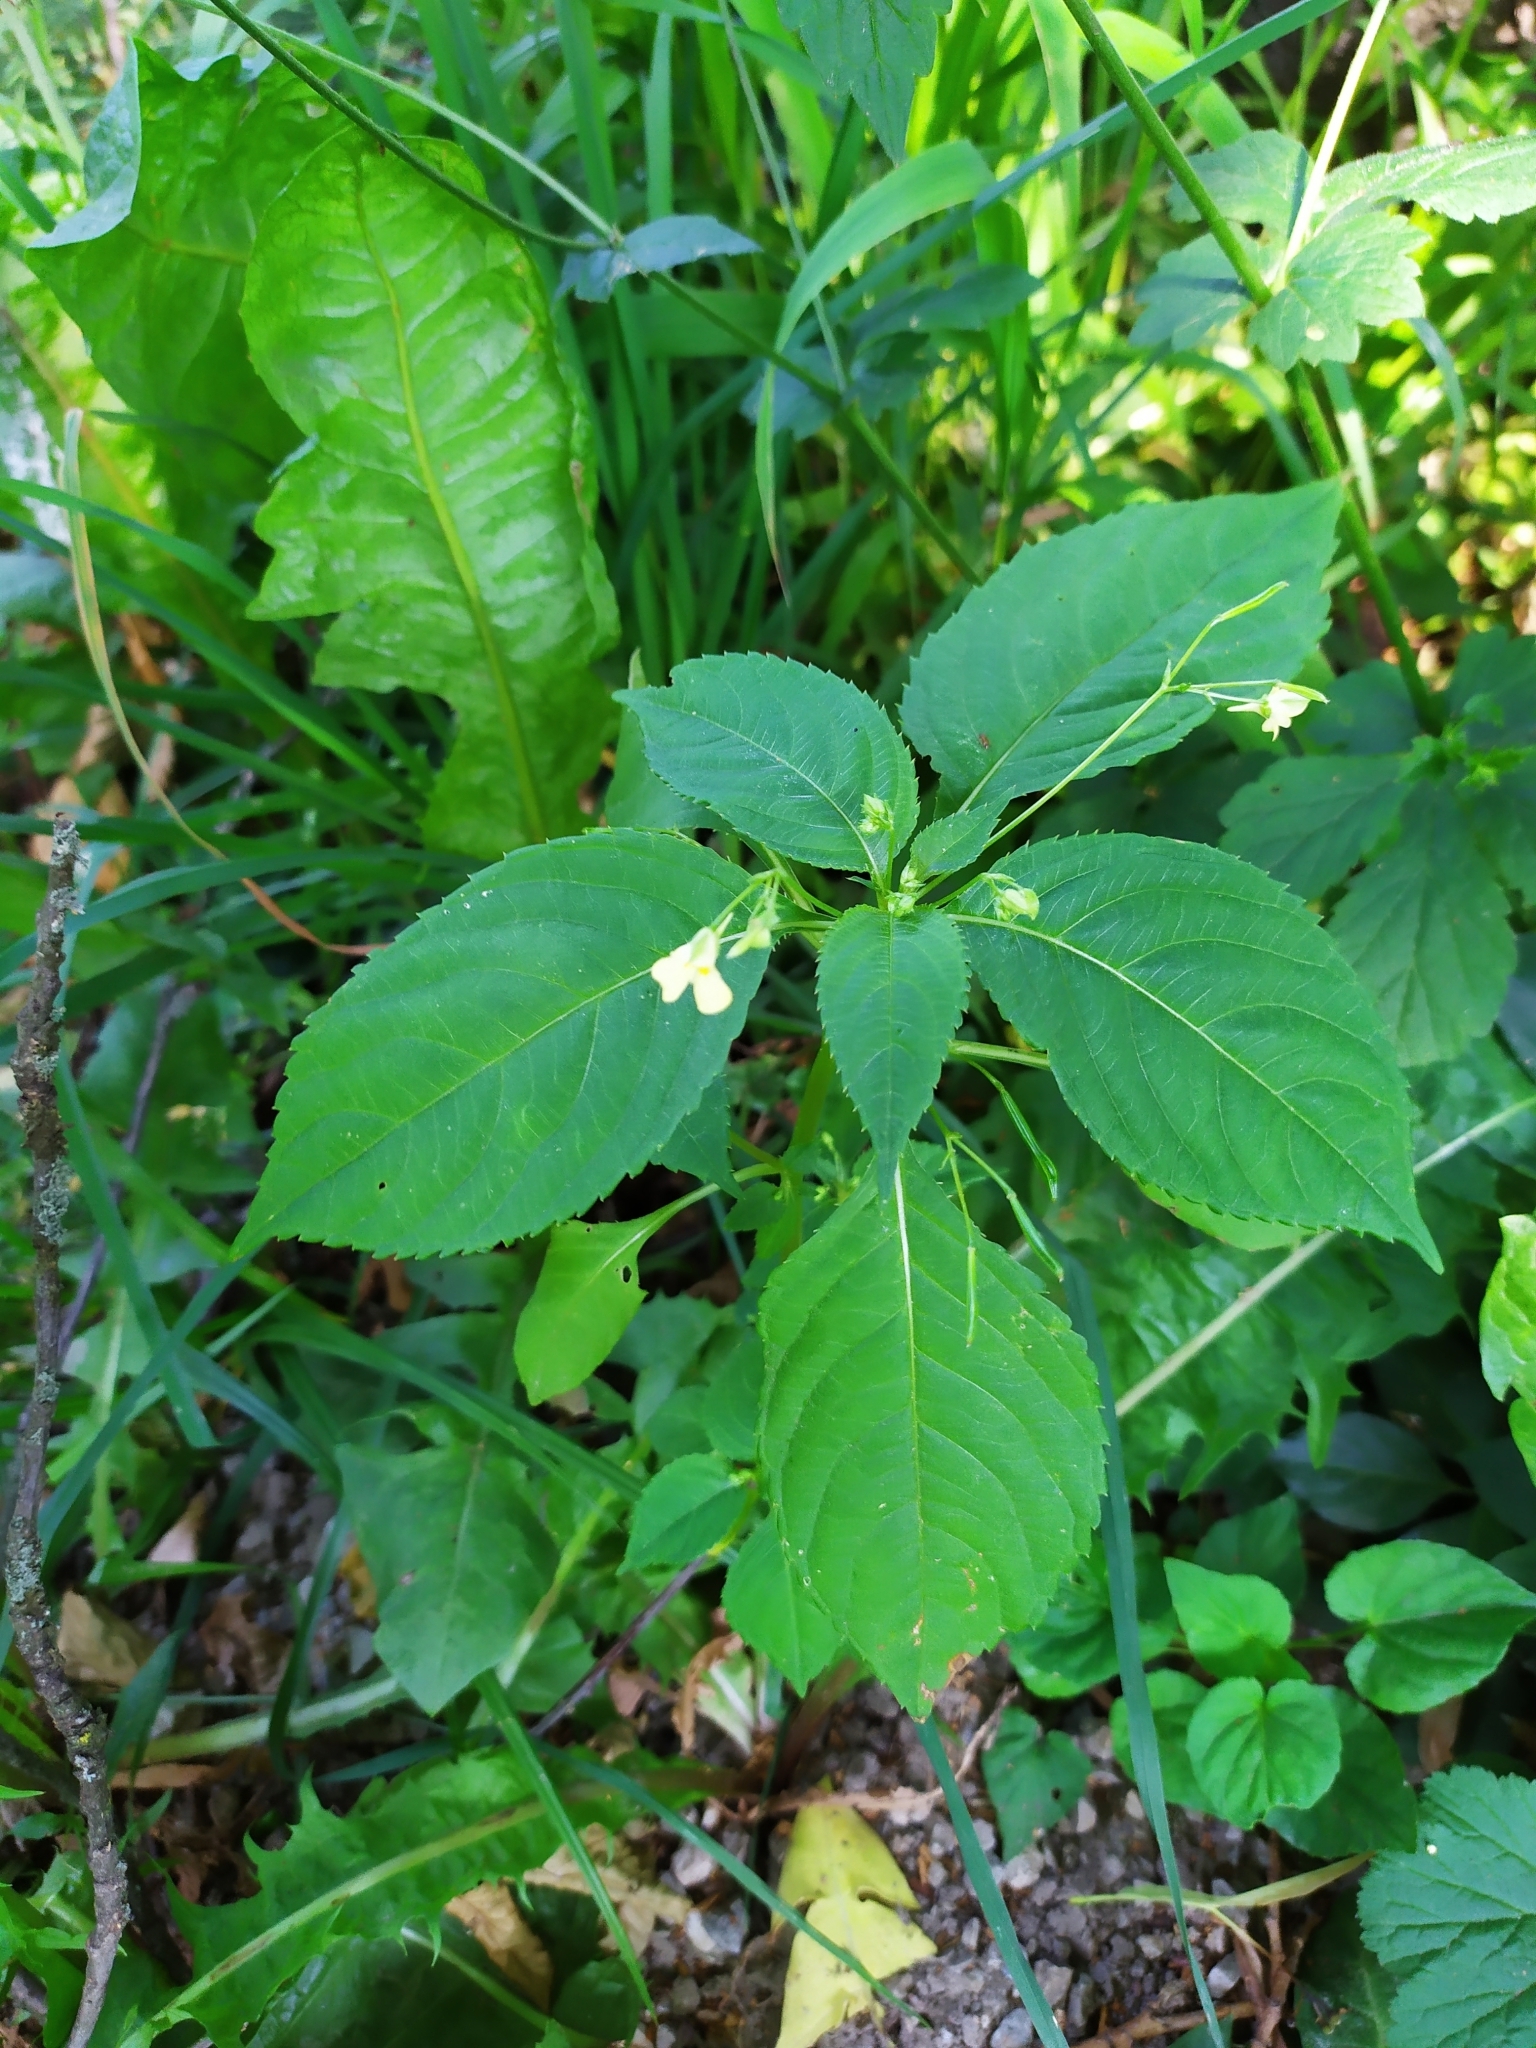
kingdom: Plantae
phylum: Tracheophyta
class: Magnoliopsida
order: Ericales
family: Balsaminaceae
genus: Impatiens
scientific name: Impatiens parviflora
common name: Small balsam
